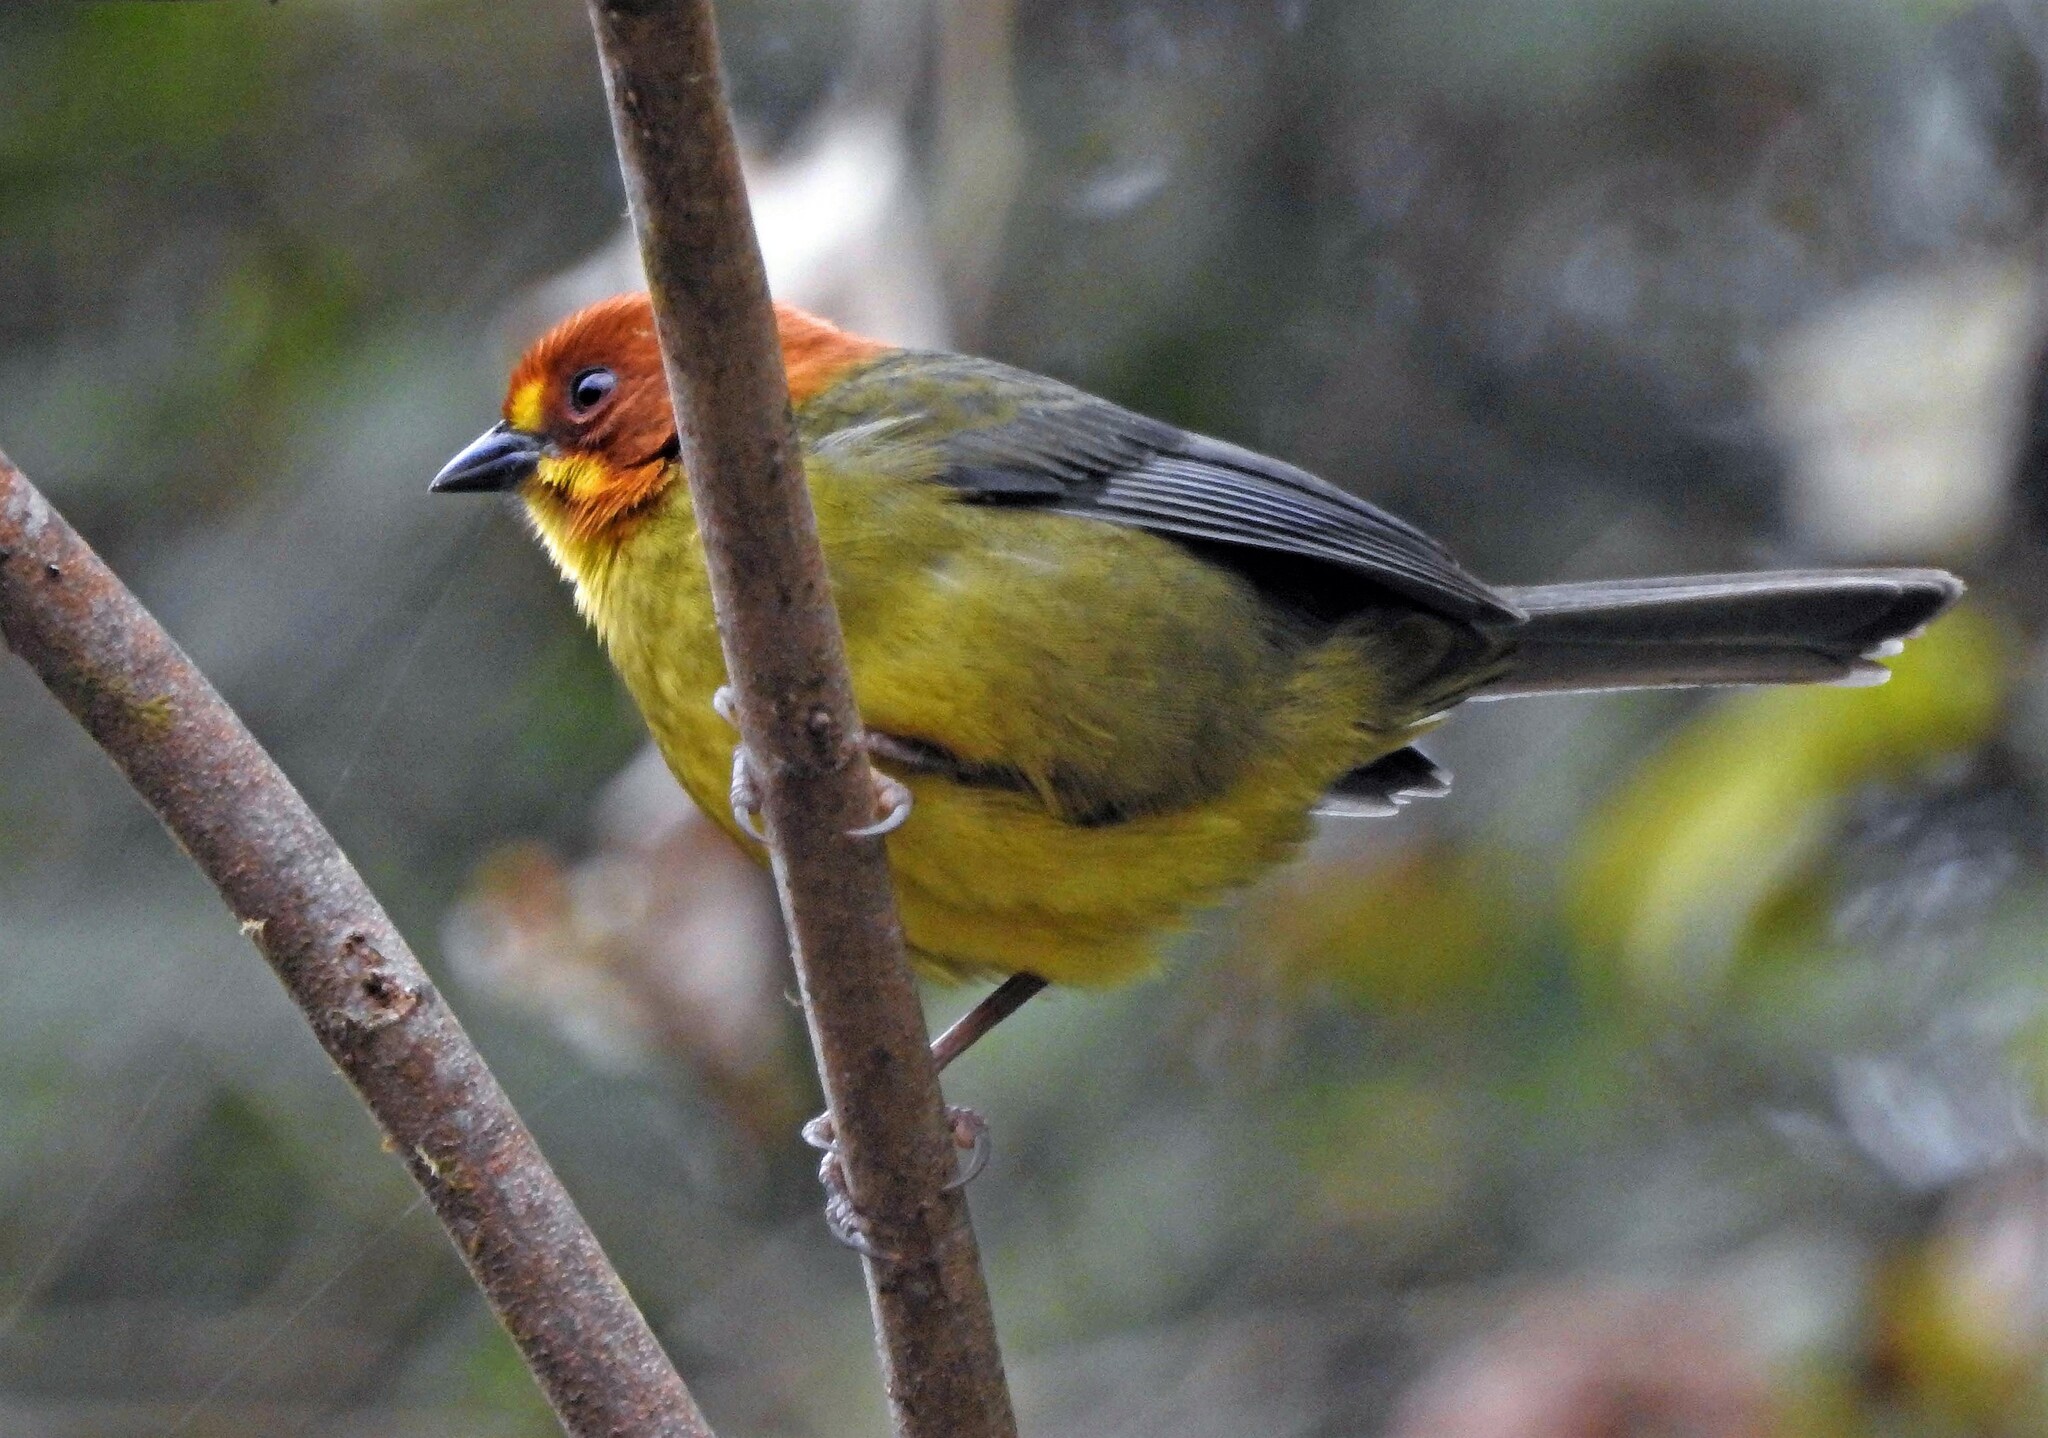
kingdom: Animalia
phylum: Chordata
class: Aves
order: Passeriformes
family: Passerellidae
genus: Atlapetes
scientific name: Atlapetes fulviceps
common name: Fulvous-headed brushfinch
